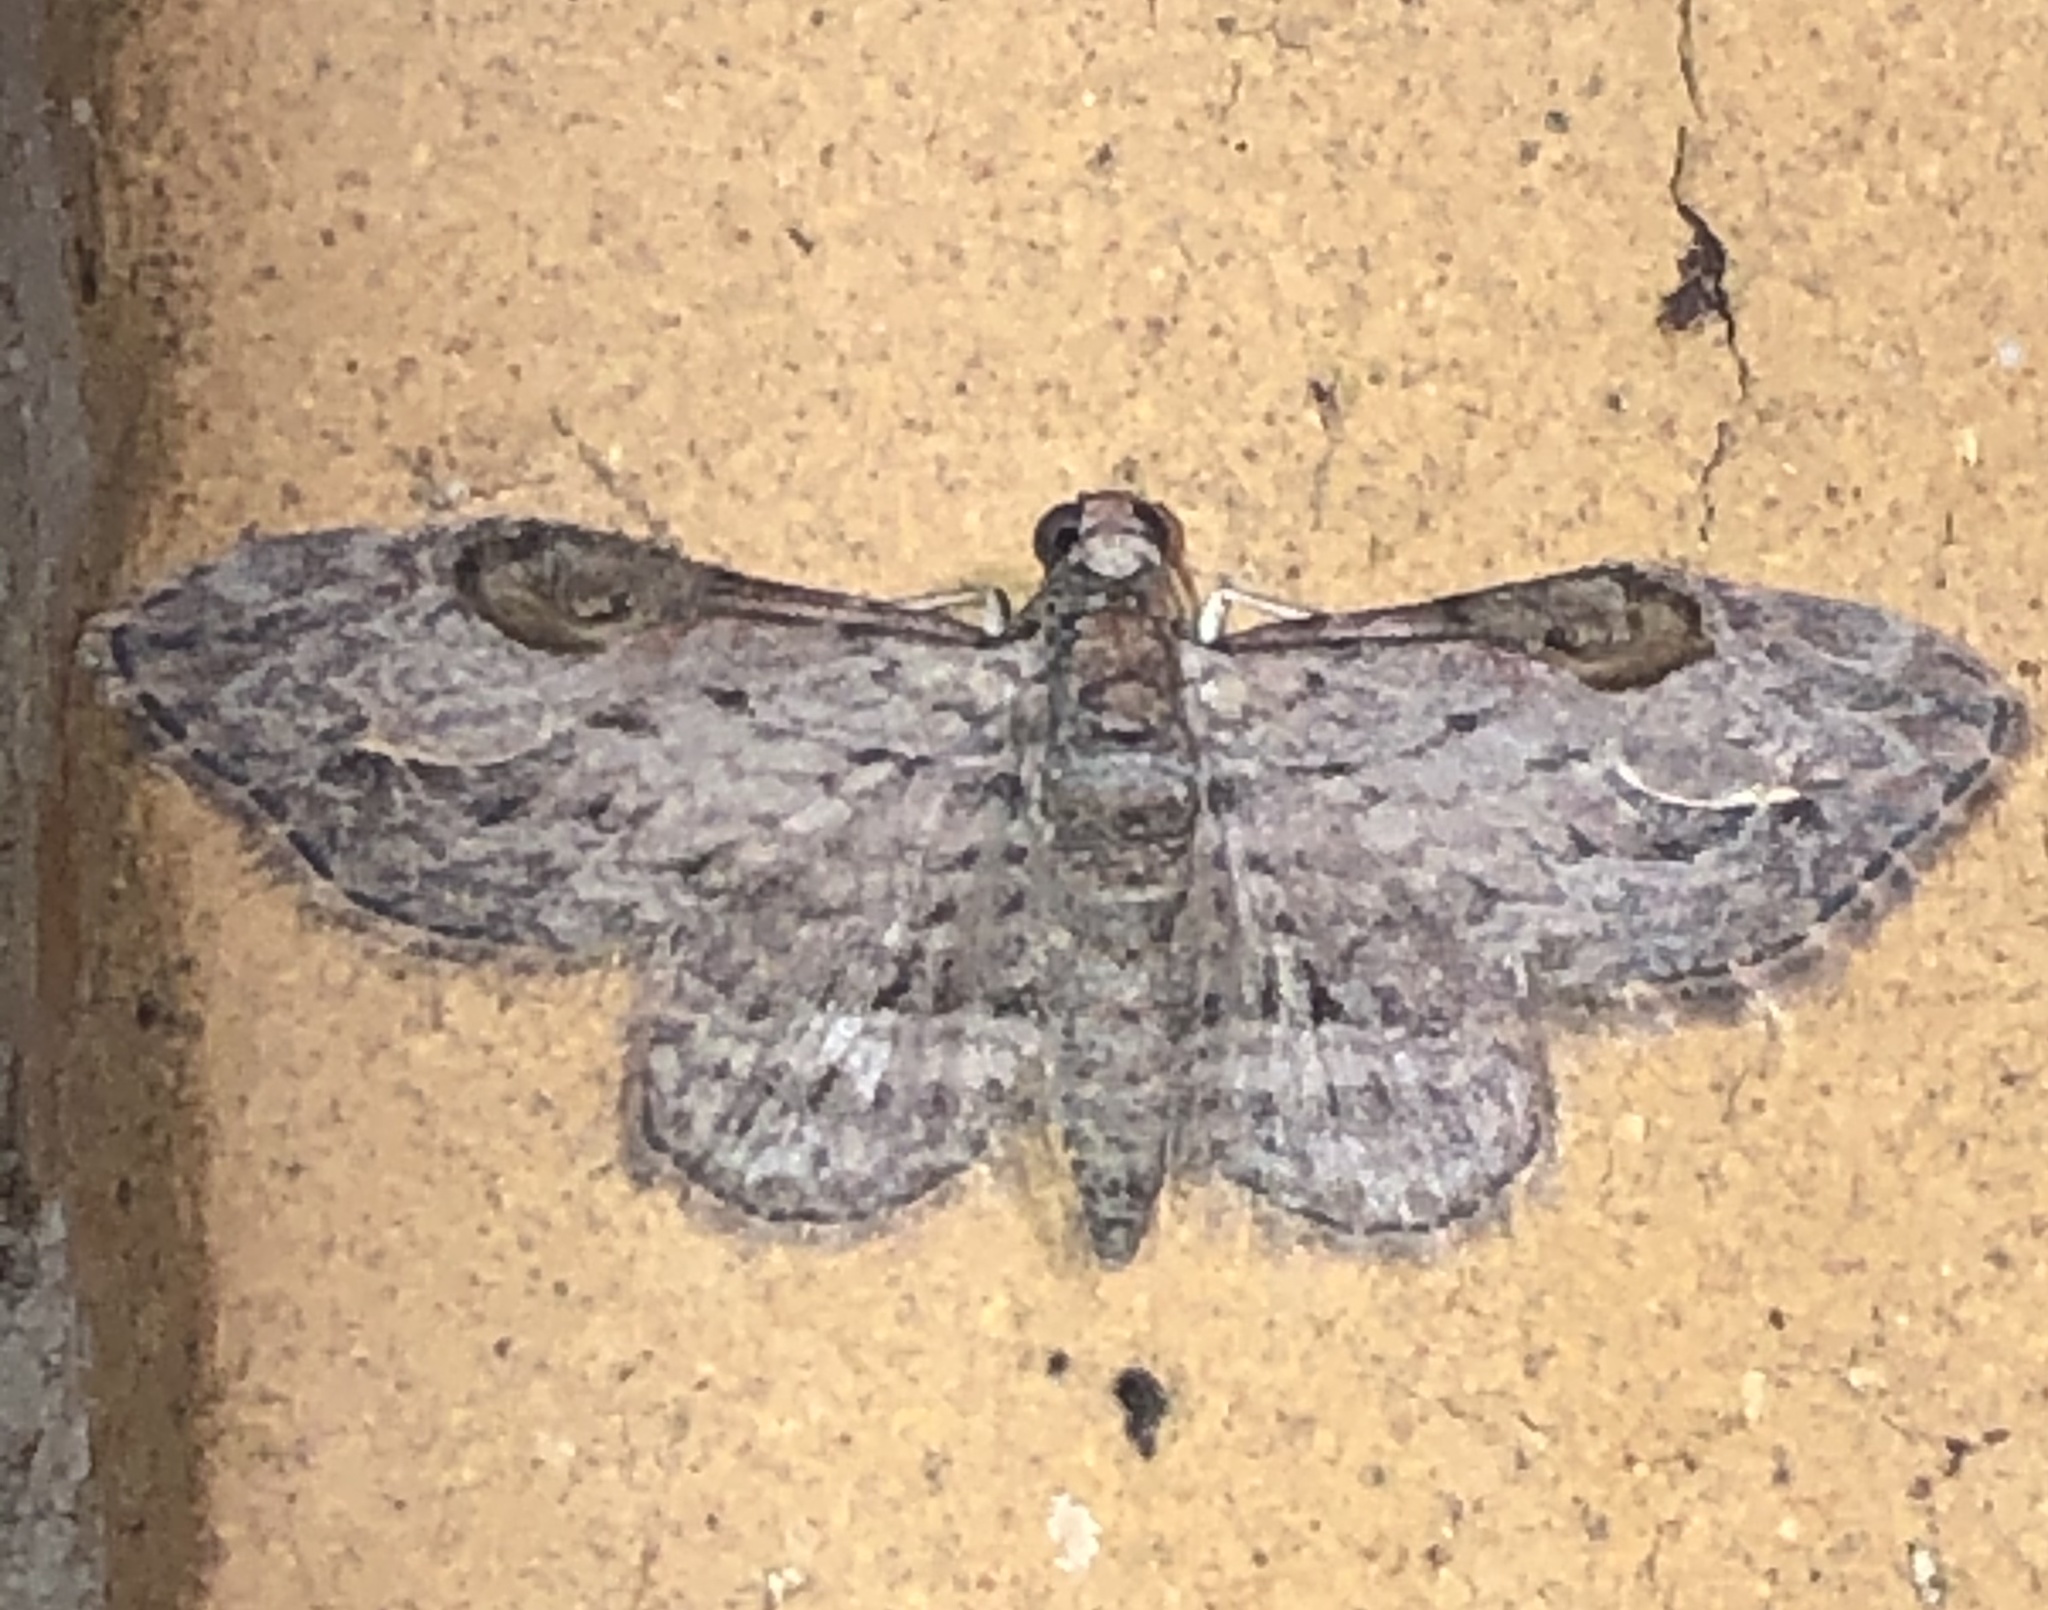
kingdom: Animalia
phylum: Arthropoda
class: Insecta
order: Lepidoptera
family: Geometridae
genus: Chloroclystis
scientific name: Chloroclystis insigillata
